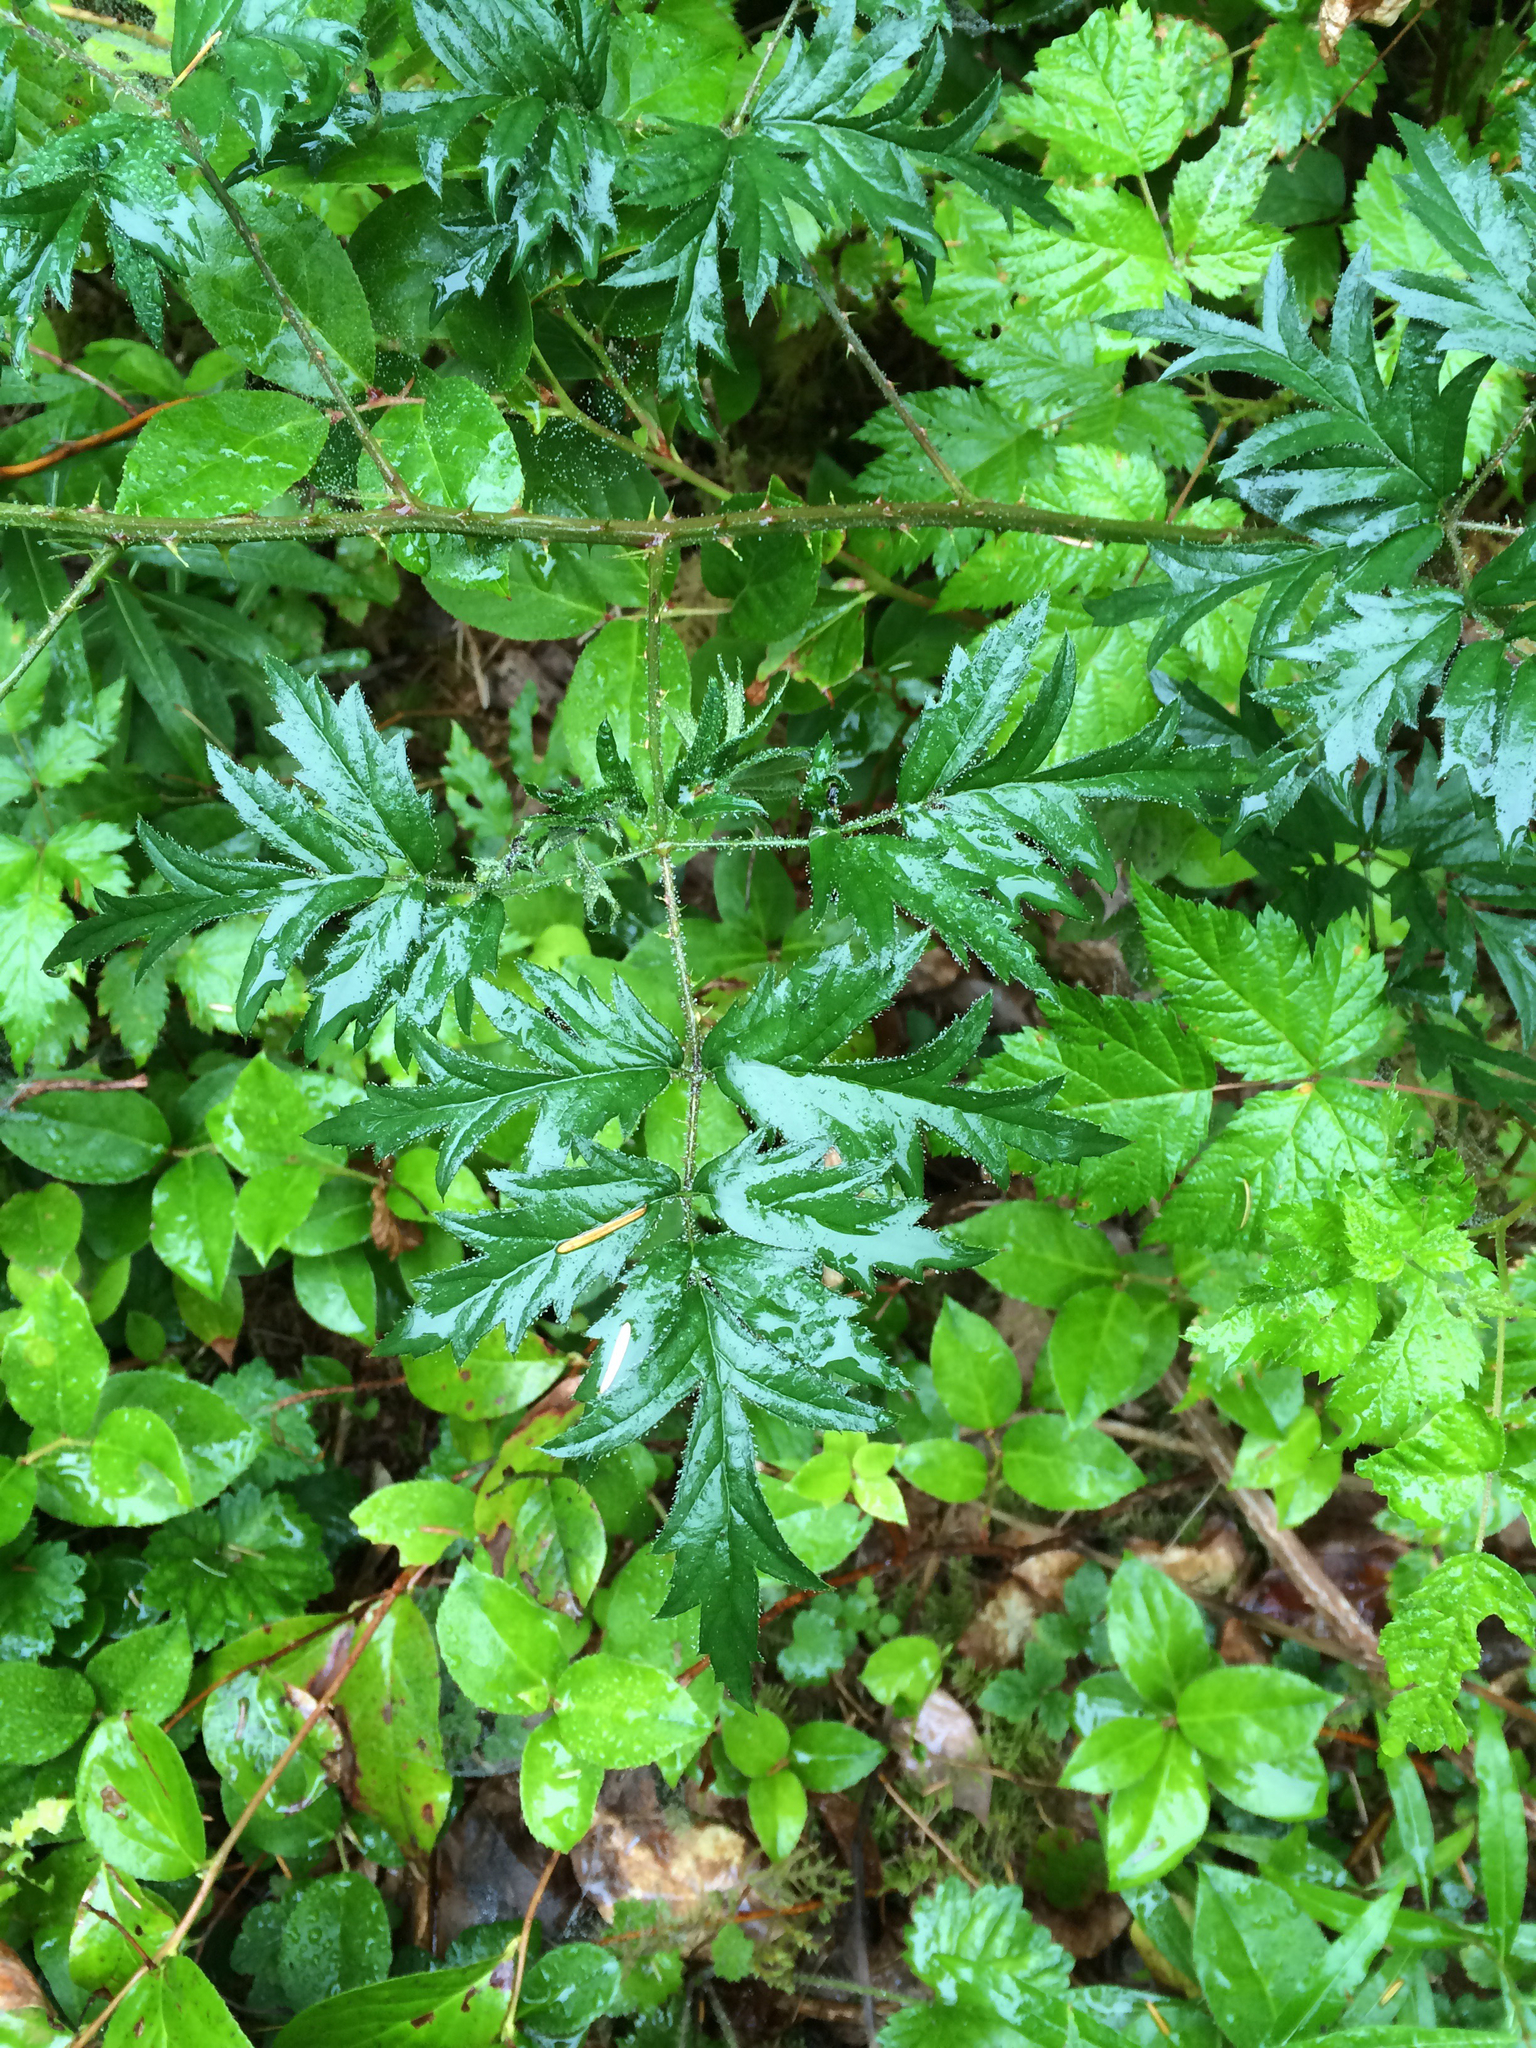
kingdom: Plantae
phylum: Tracheophyta
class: Magnoliopsida
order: Rosales
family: Rosaceae
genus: Rubus
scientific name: Rubus laciniatus
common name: Evergreen blackberry
